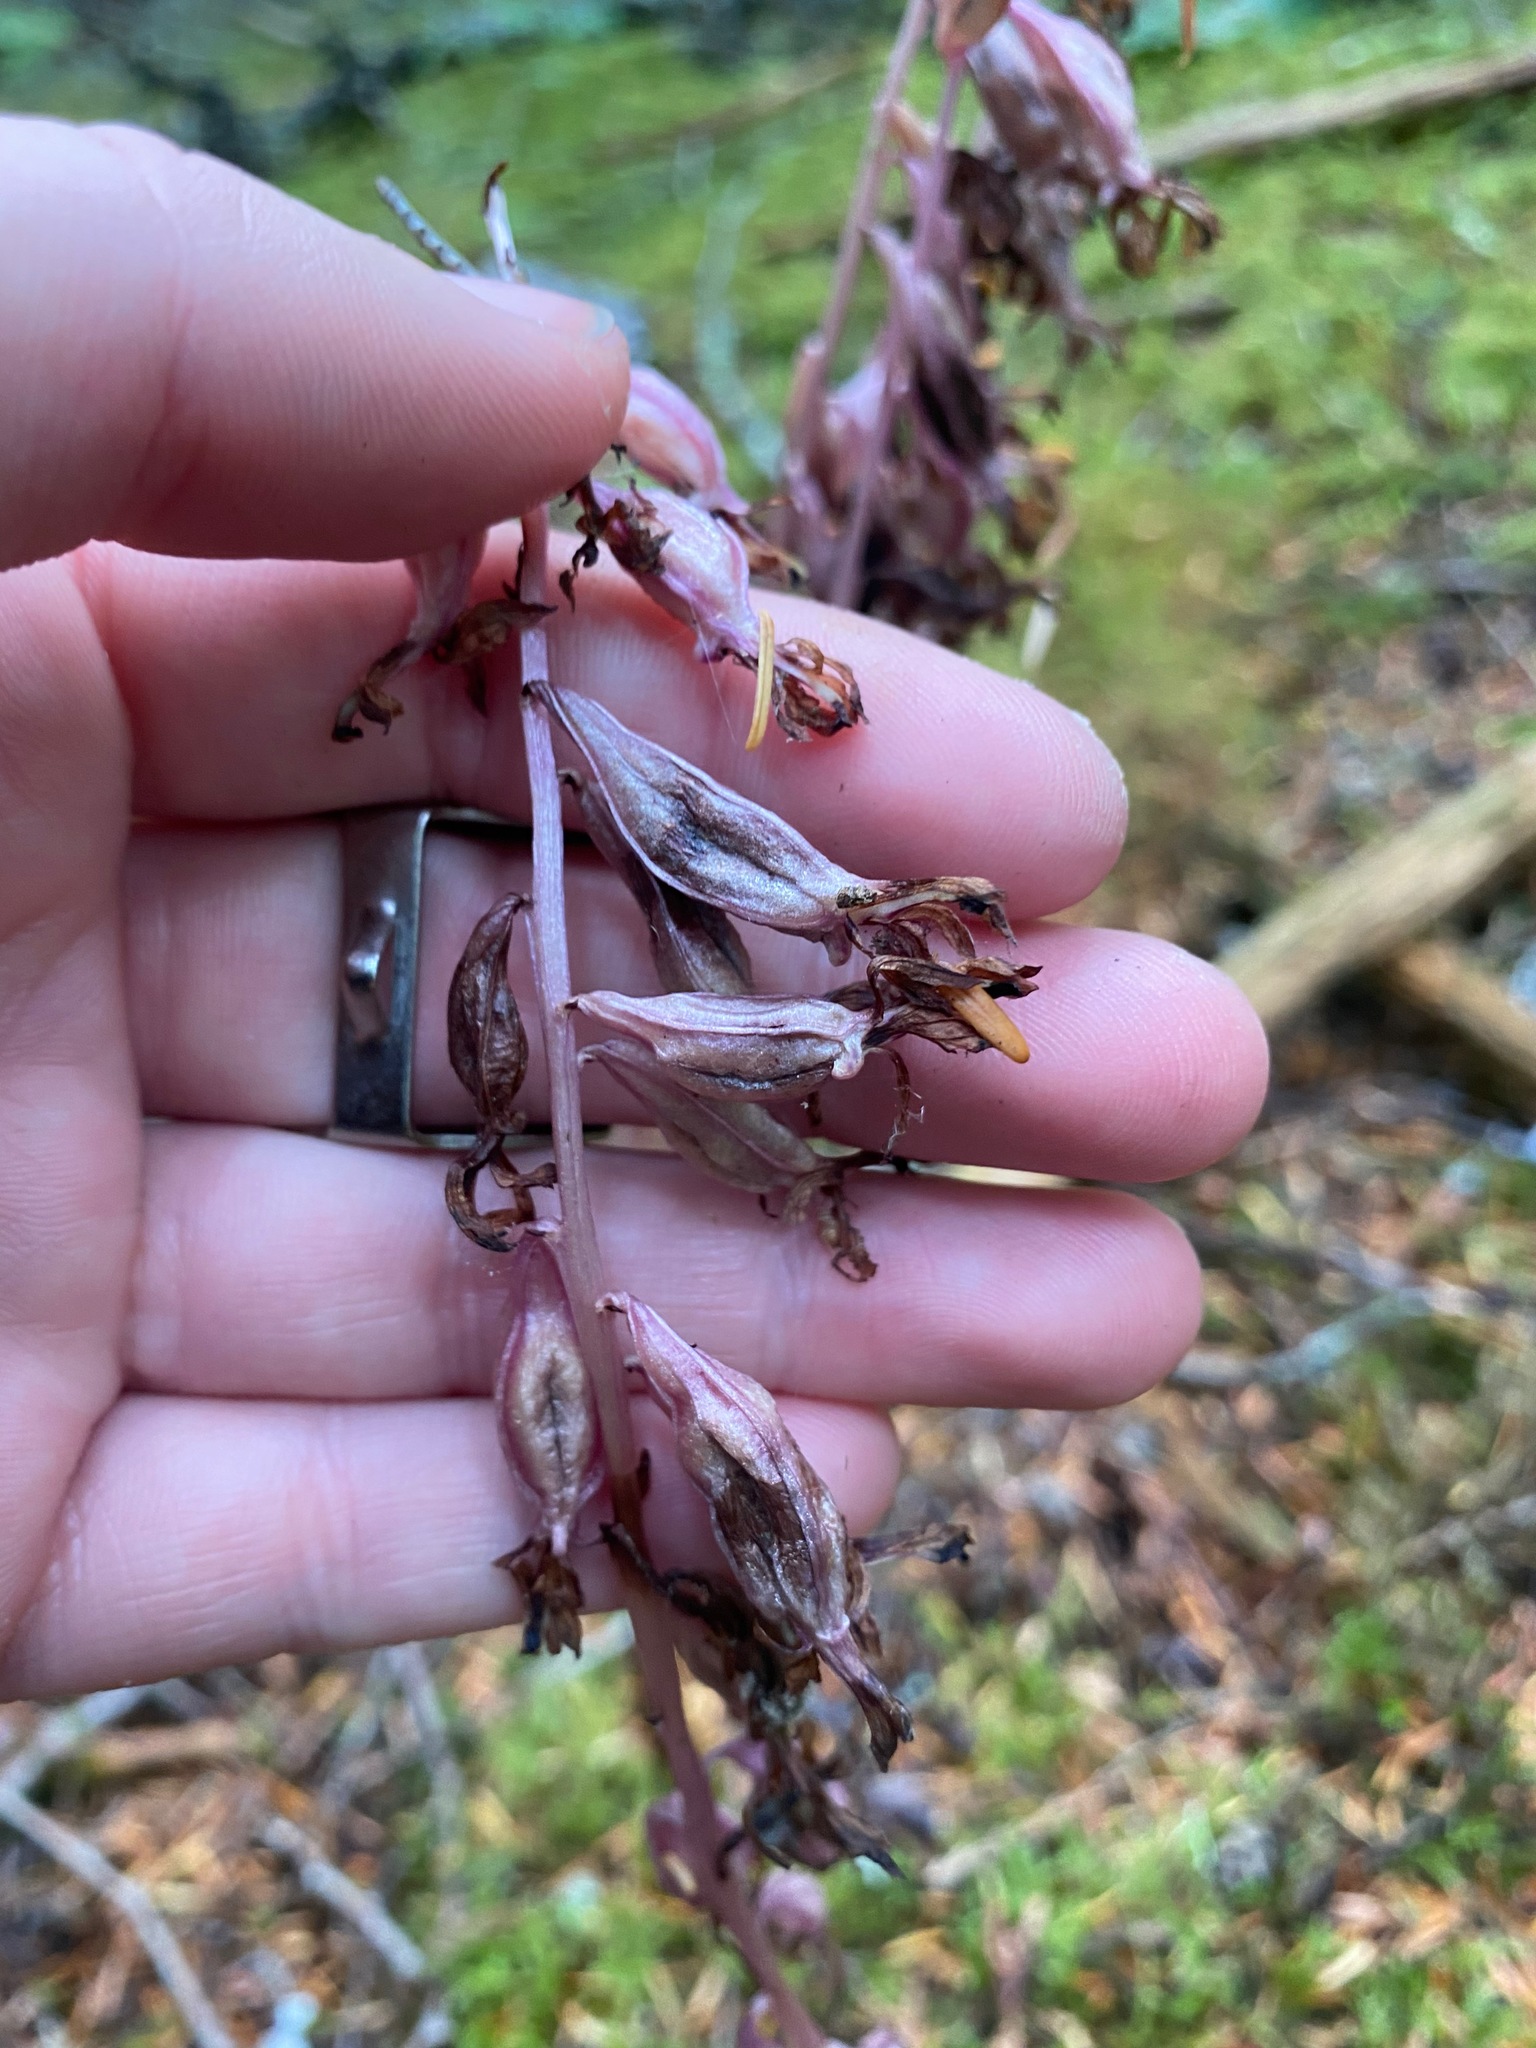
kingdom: Plantae
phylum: Tracheophyta
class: Liliopsida
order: Asparagales
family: Orchidaceae
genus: Corallorhiza
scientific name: Corallorhiza mertensiana
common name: Pacific coralroot
